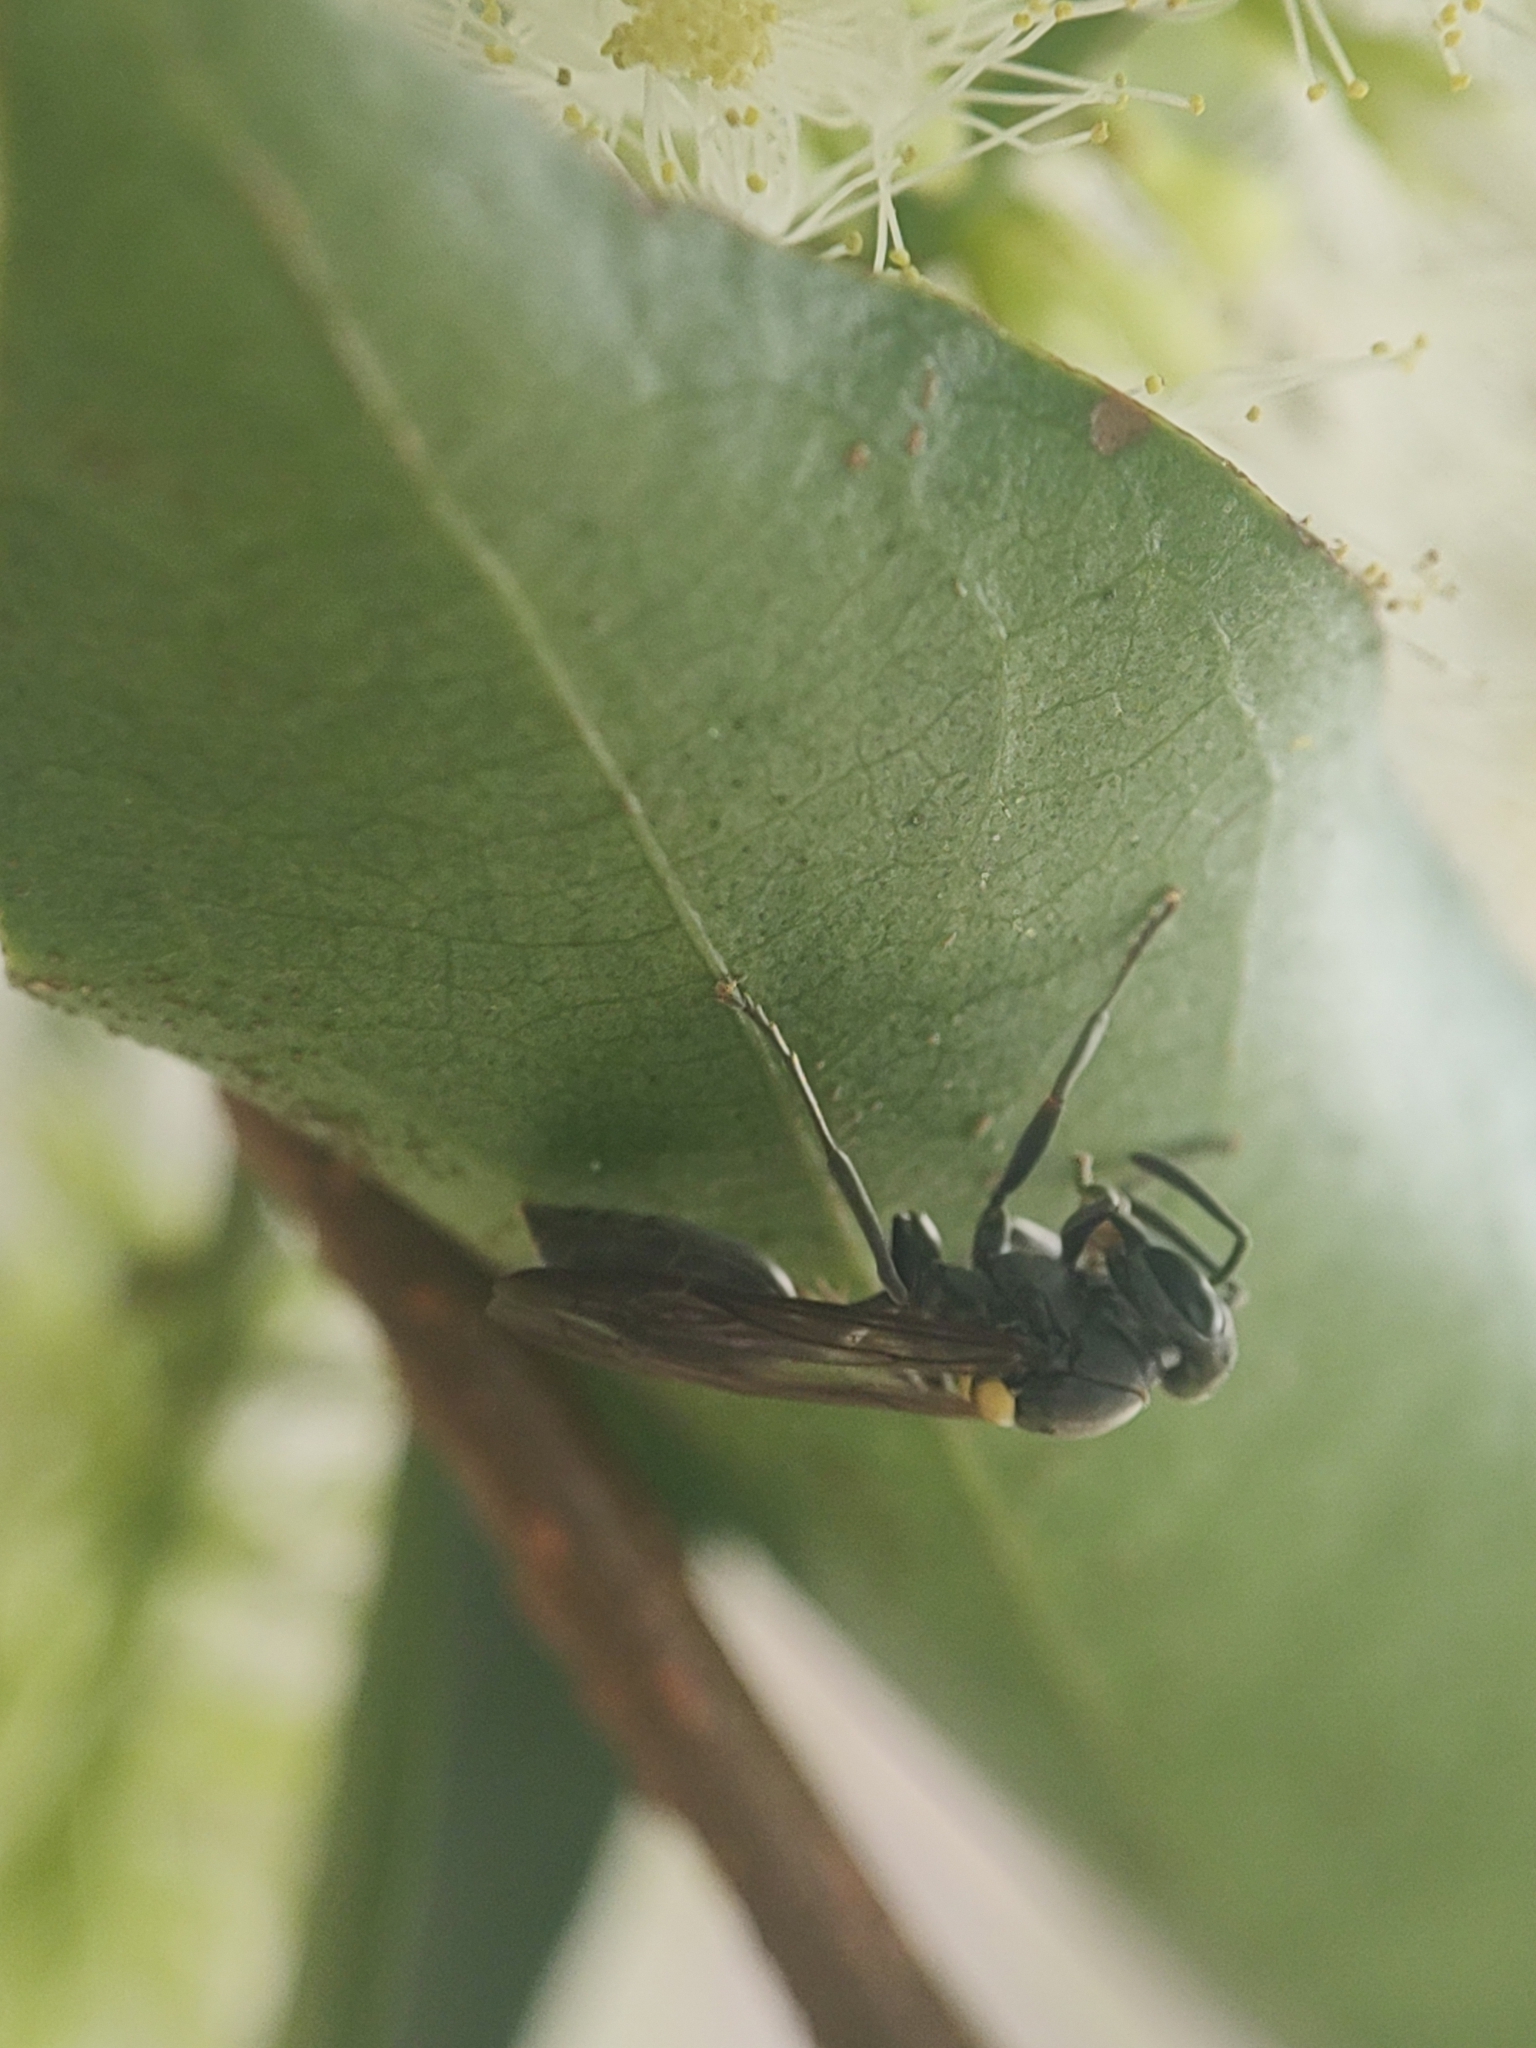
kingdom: Animalia
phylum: Arthropoda
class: Insecta
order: Hymenoptera
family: Eumenidae
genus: Polybia
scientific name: Polybia scutellaris
